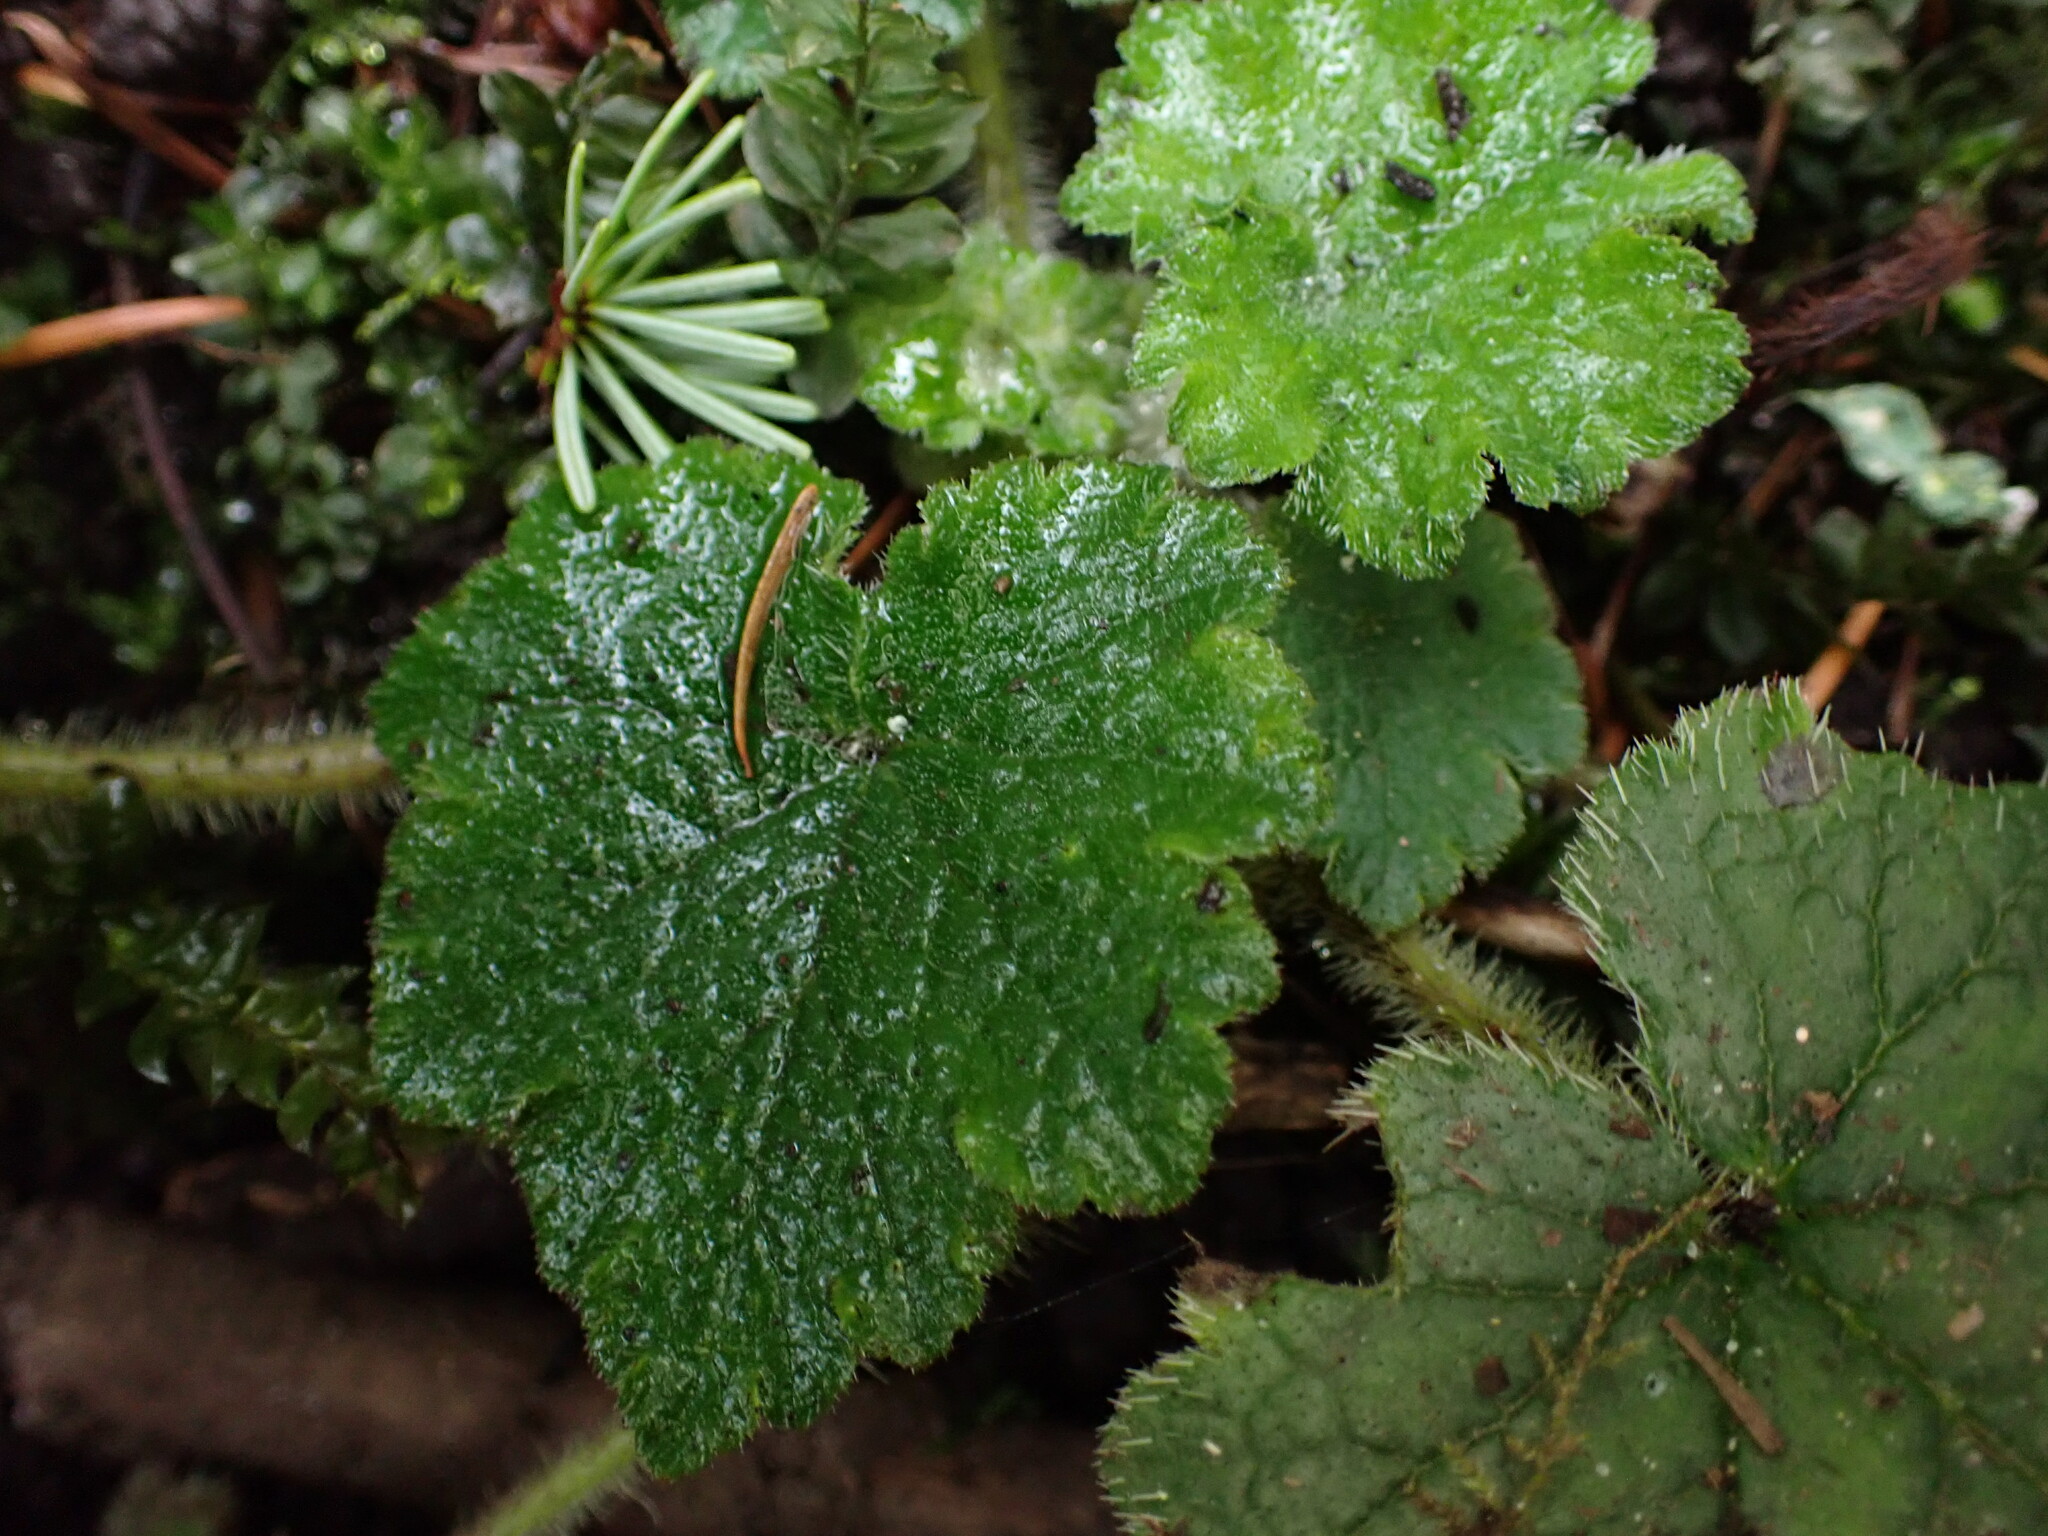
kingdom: Plantae
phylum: Tracheophyta
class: Magnoliopsida
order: Saxifragales
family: Saxifragaceae
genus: Tellima
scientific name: Tellima grandiflora
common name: Fringecups
